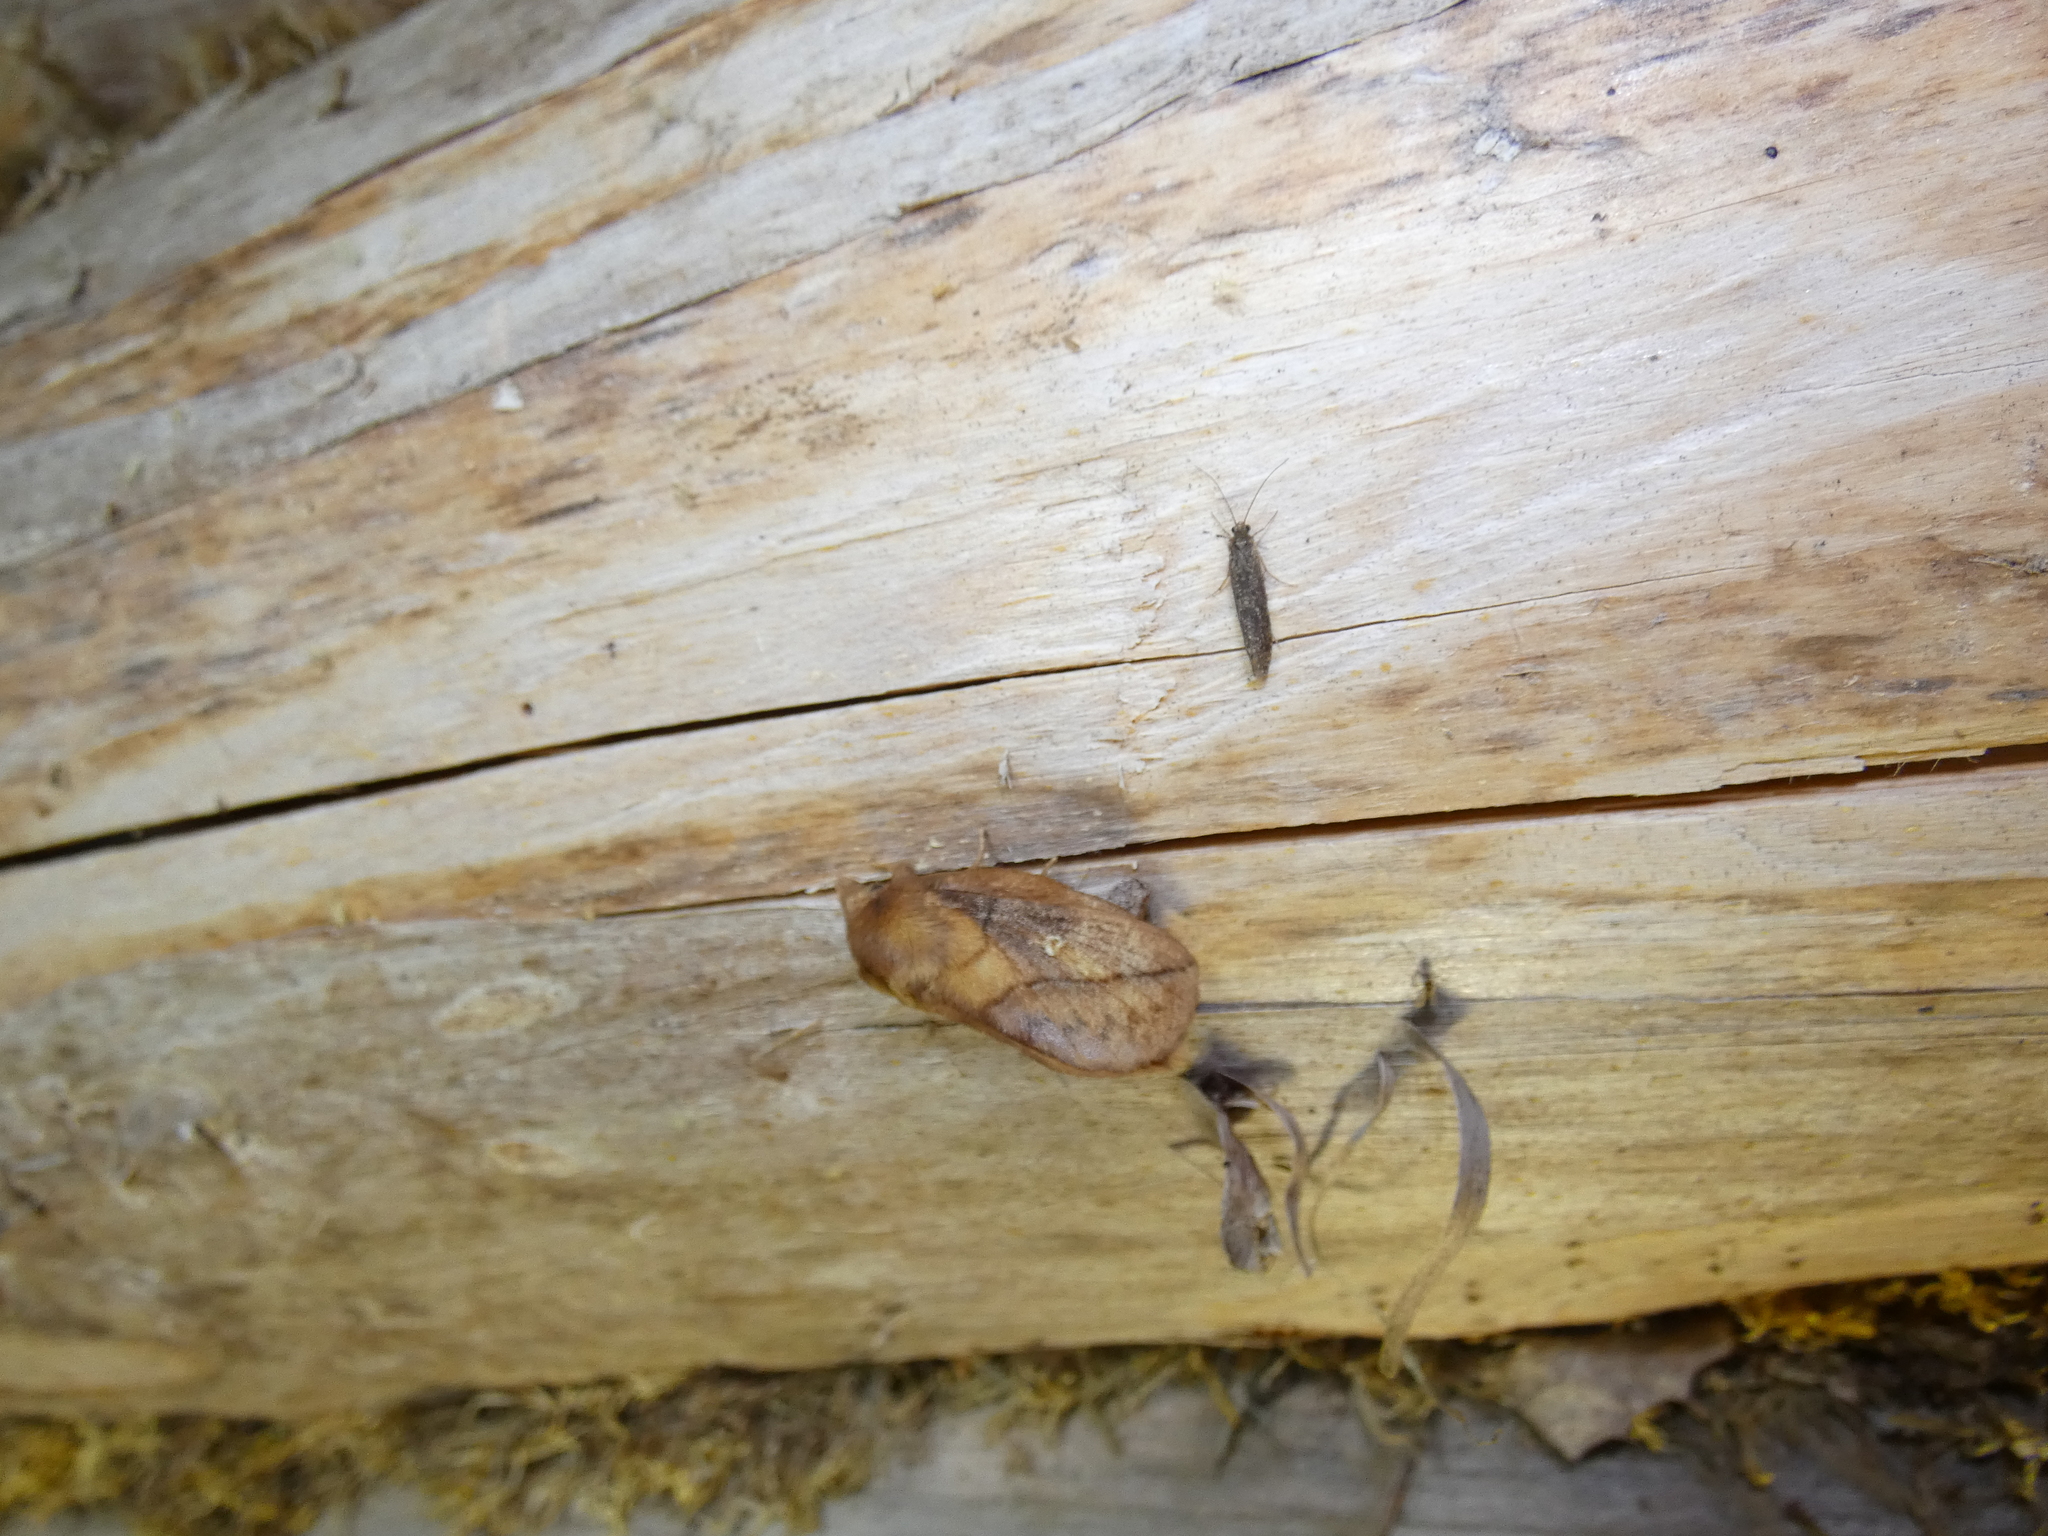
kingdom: Animalia
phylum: Arthropoda
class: Insecta
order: Lepidoptera
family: Lasiocampidae
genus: Euthrix
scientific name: Euthrix potatoria
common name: Drinker
